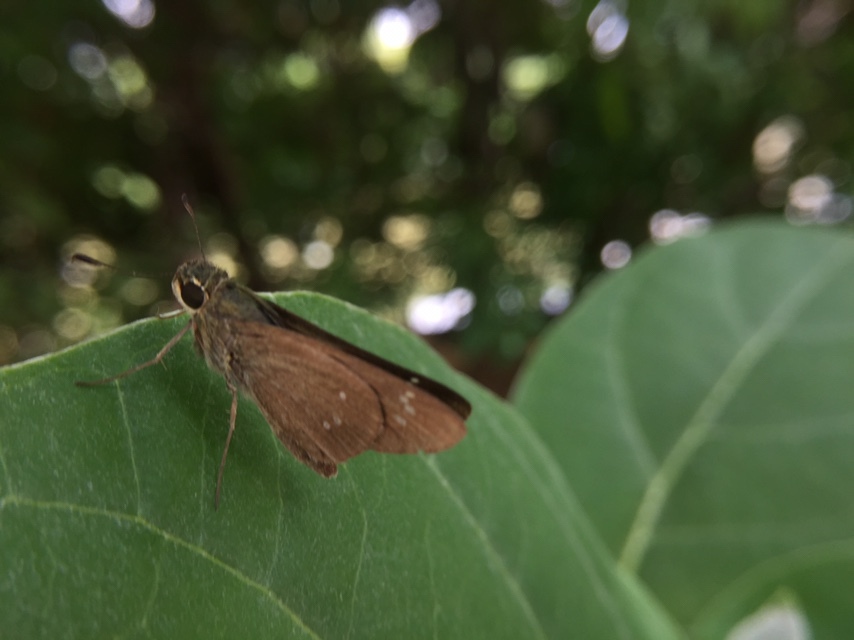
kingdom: Animalia
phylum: Arthropoda
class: Insecta
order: Lepidoptera
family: Hesperiidae
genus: Borbo
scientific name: Borbo cinnara
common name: Formosan swift
